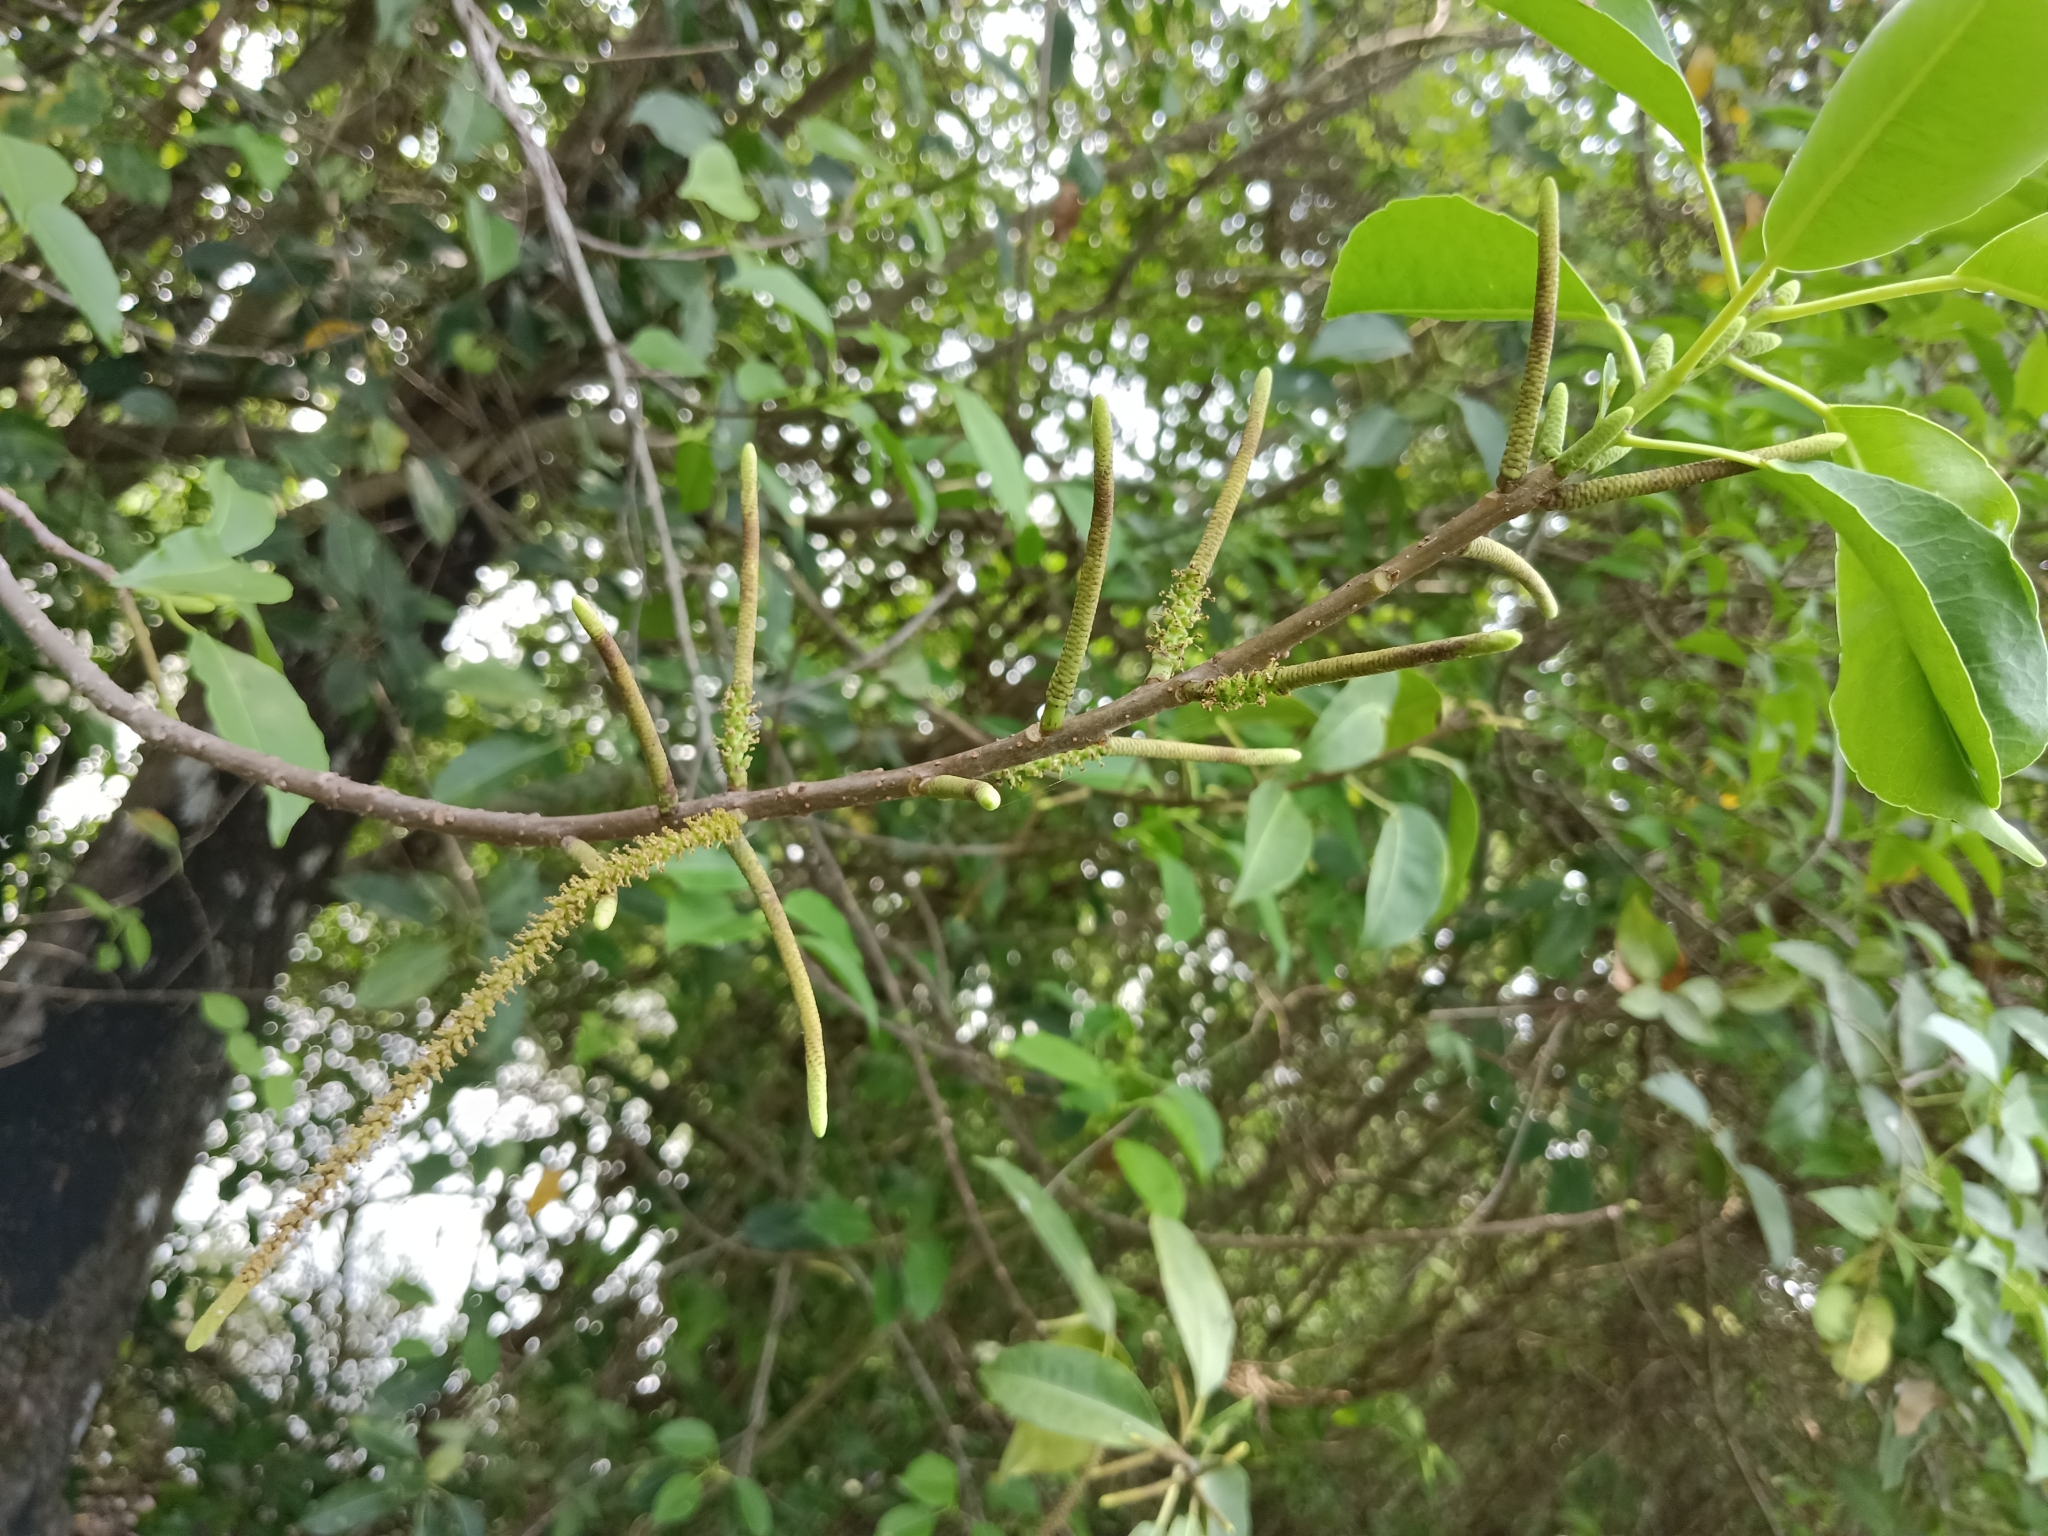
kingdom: Plantae
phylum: Tracheophyta
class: Magnoliopsida
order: Malpighiales
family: Euphorbiaceae
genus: Excoecaria
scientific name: Excoecaria agallocha
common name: River poisontree
